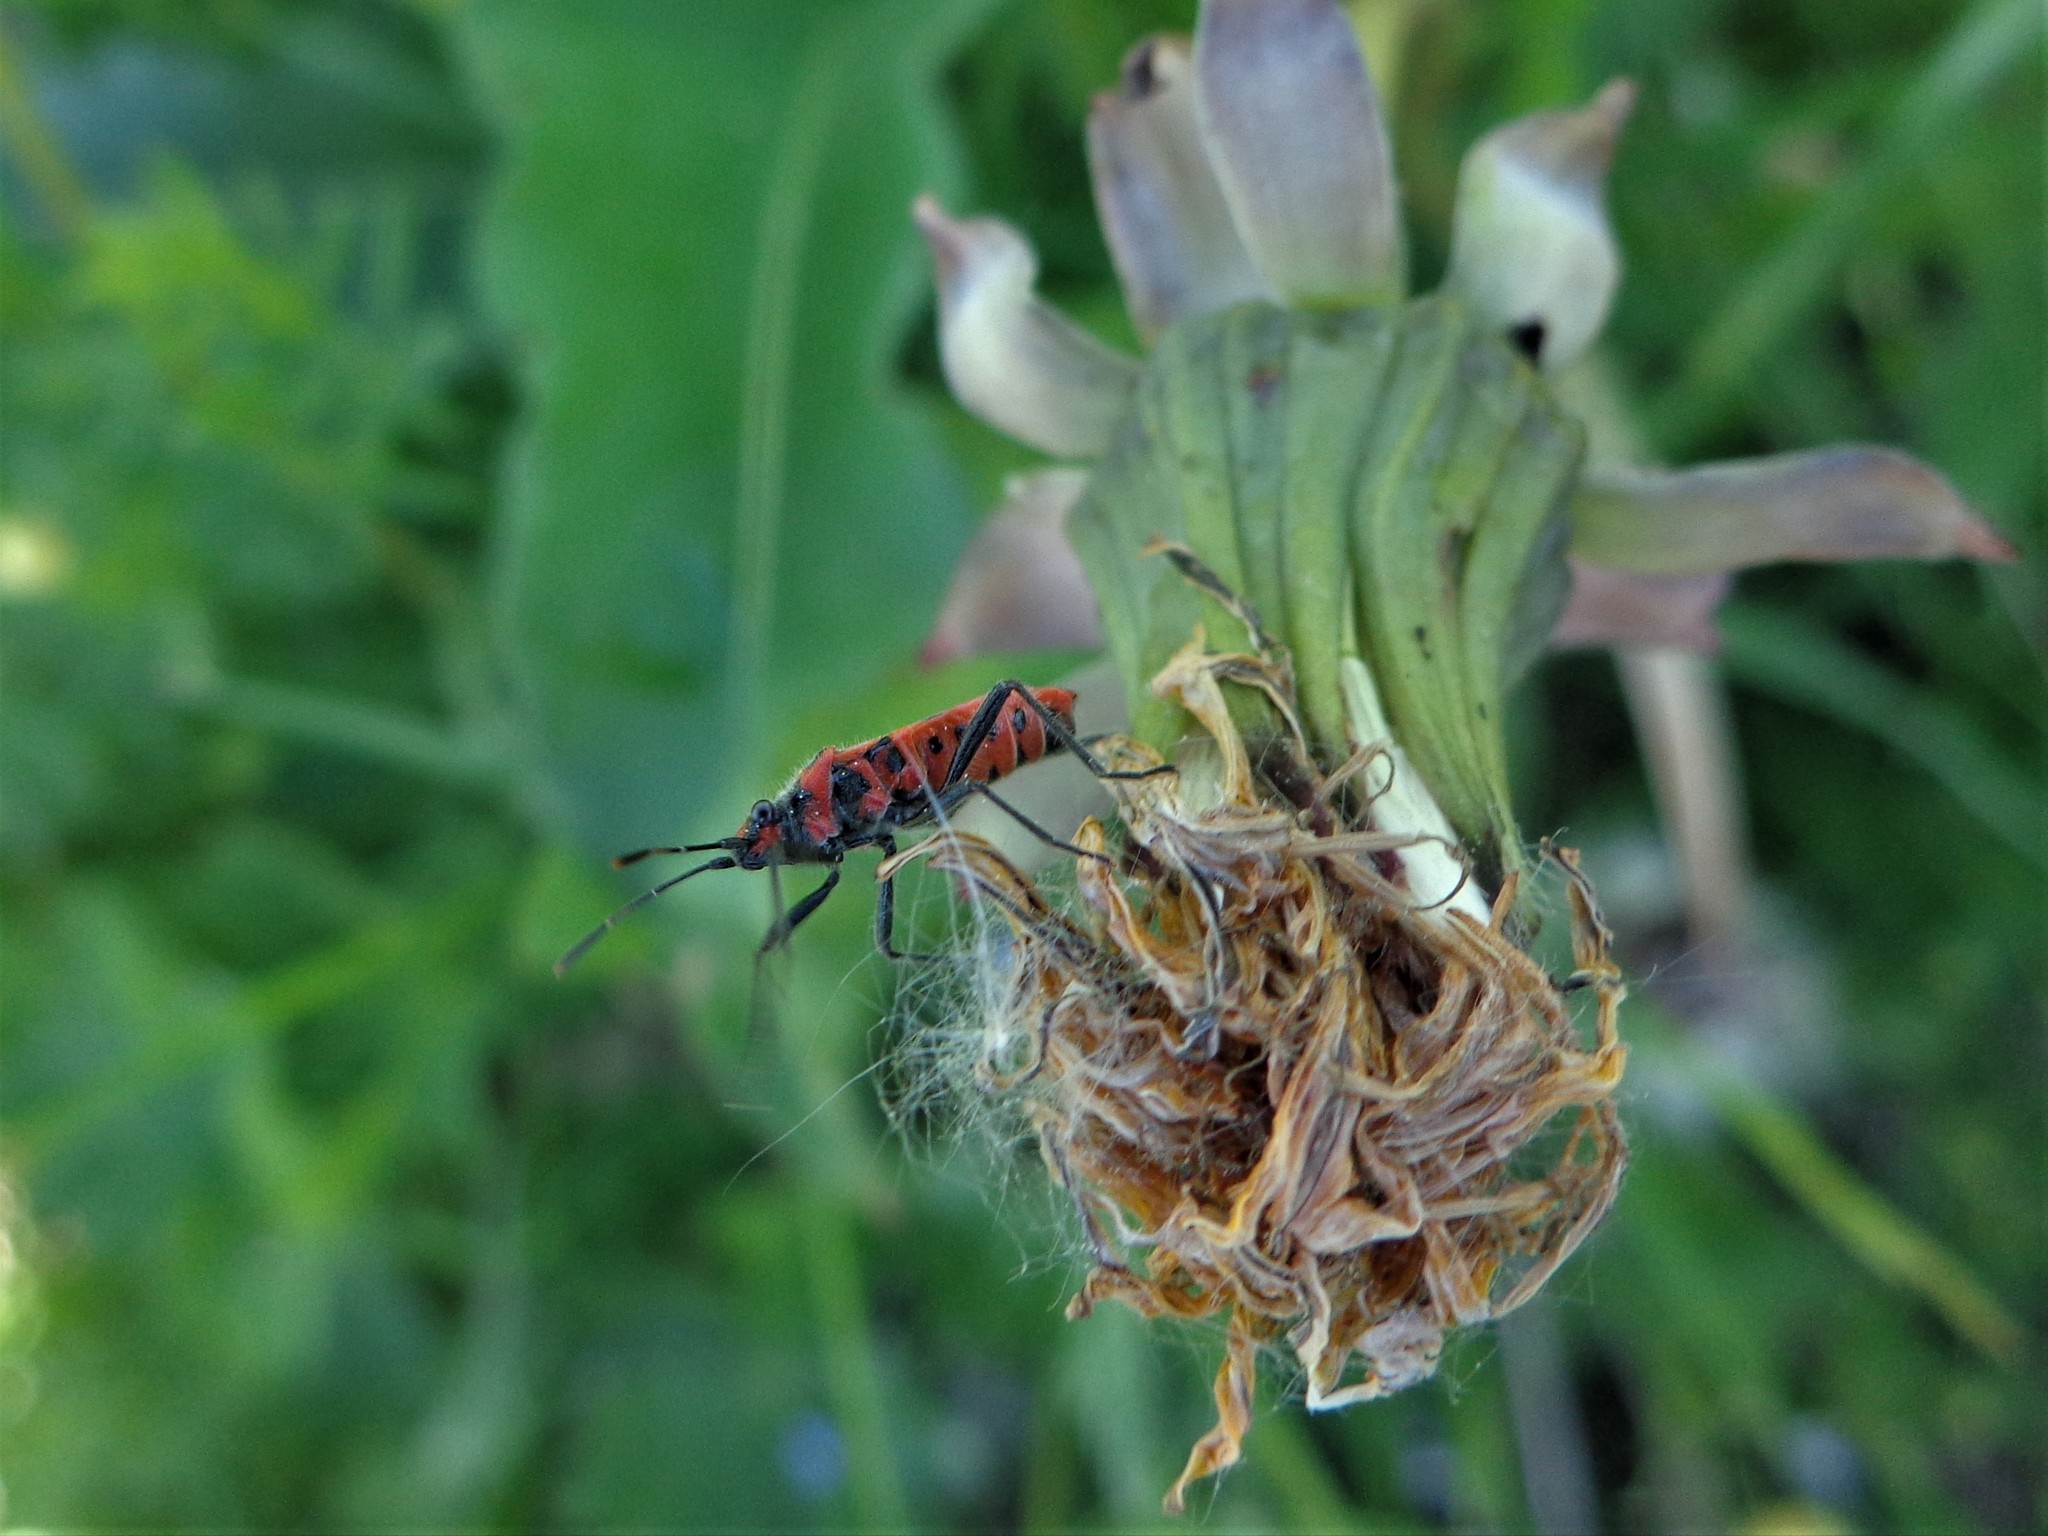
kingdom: Animalia
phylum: Arthropoda
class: Insecta
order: Hemiptera
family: Rhopalidae
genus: Corizus
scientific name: Corizus hyoscyami
